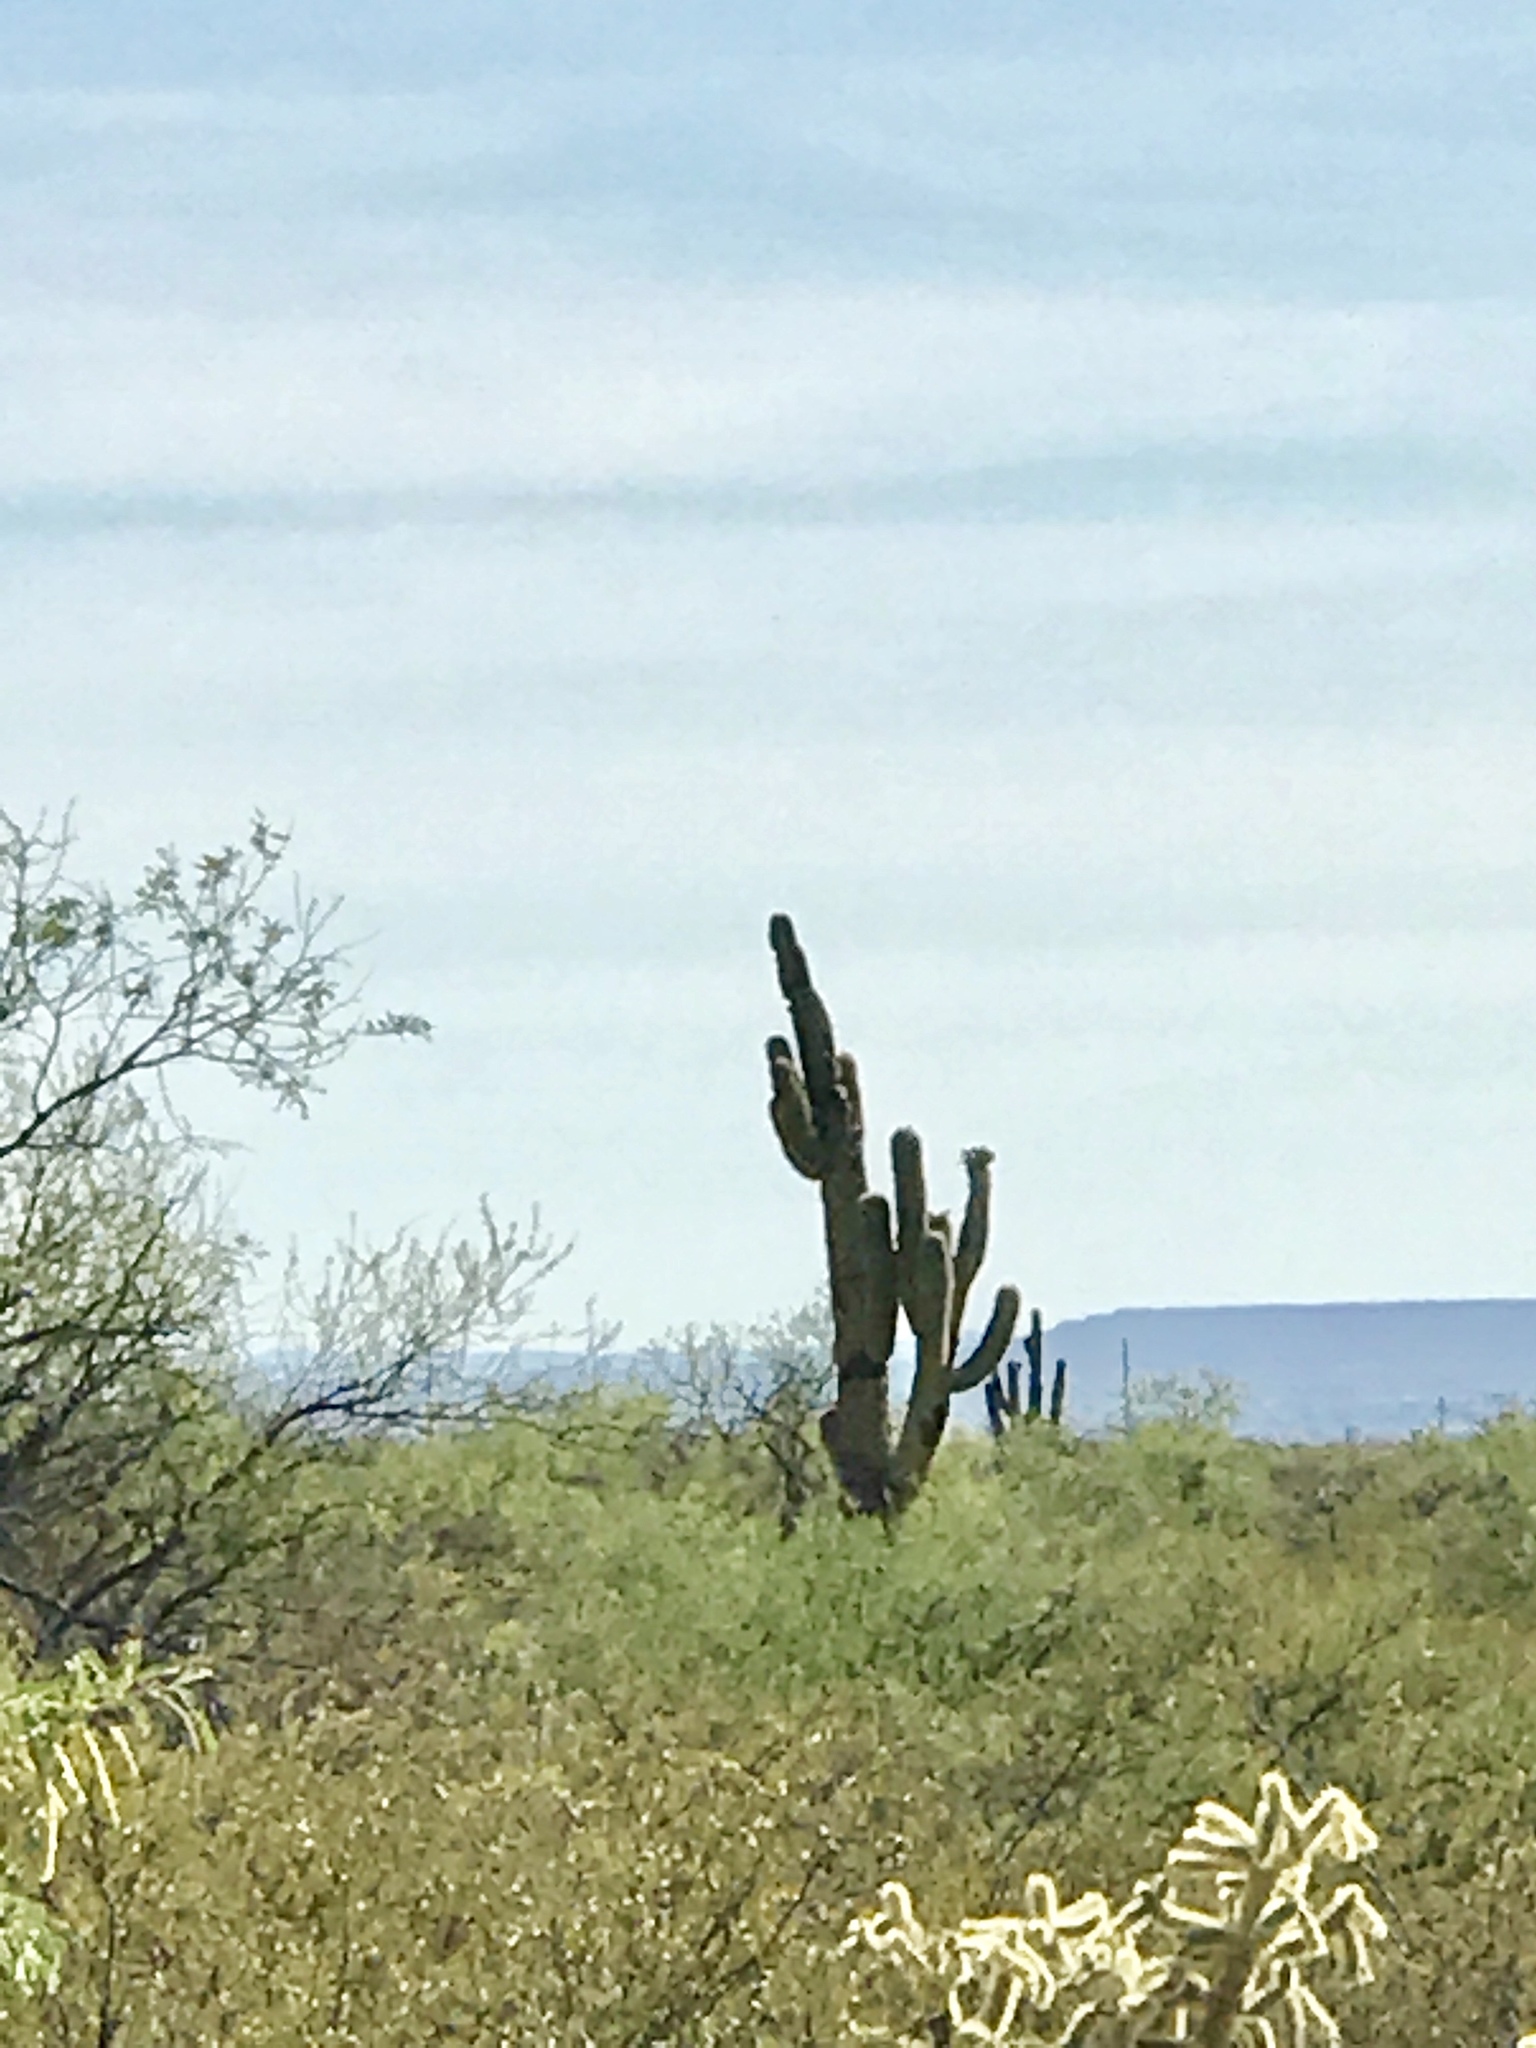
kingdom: Plantae
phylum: Tracheophyta
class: Magnoliopsida
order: Caryophyllales
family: Cactaceae
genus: Carnegiea
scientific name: Carnegiea gigantea
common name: Saguaro
